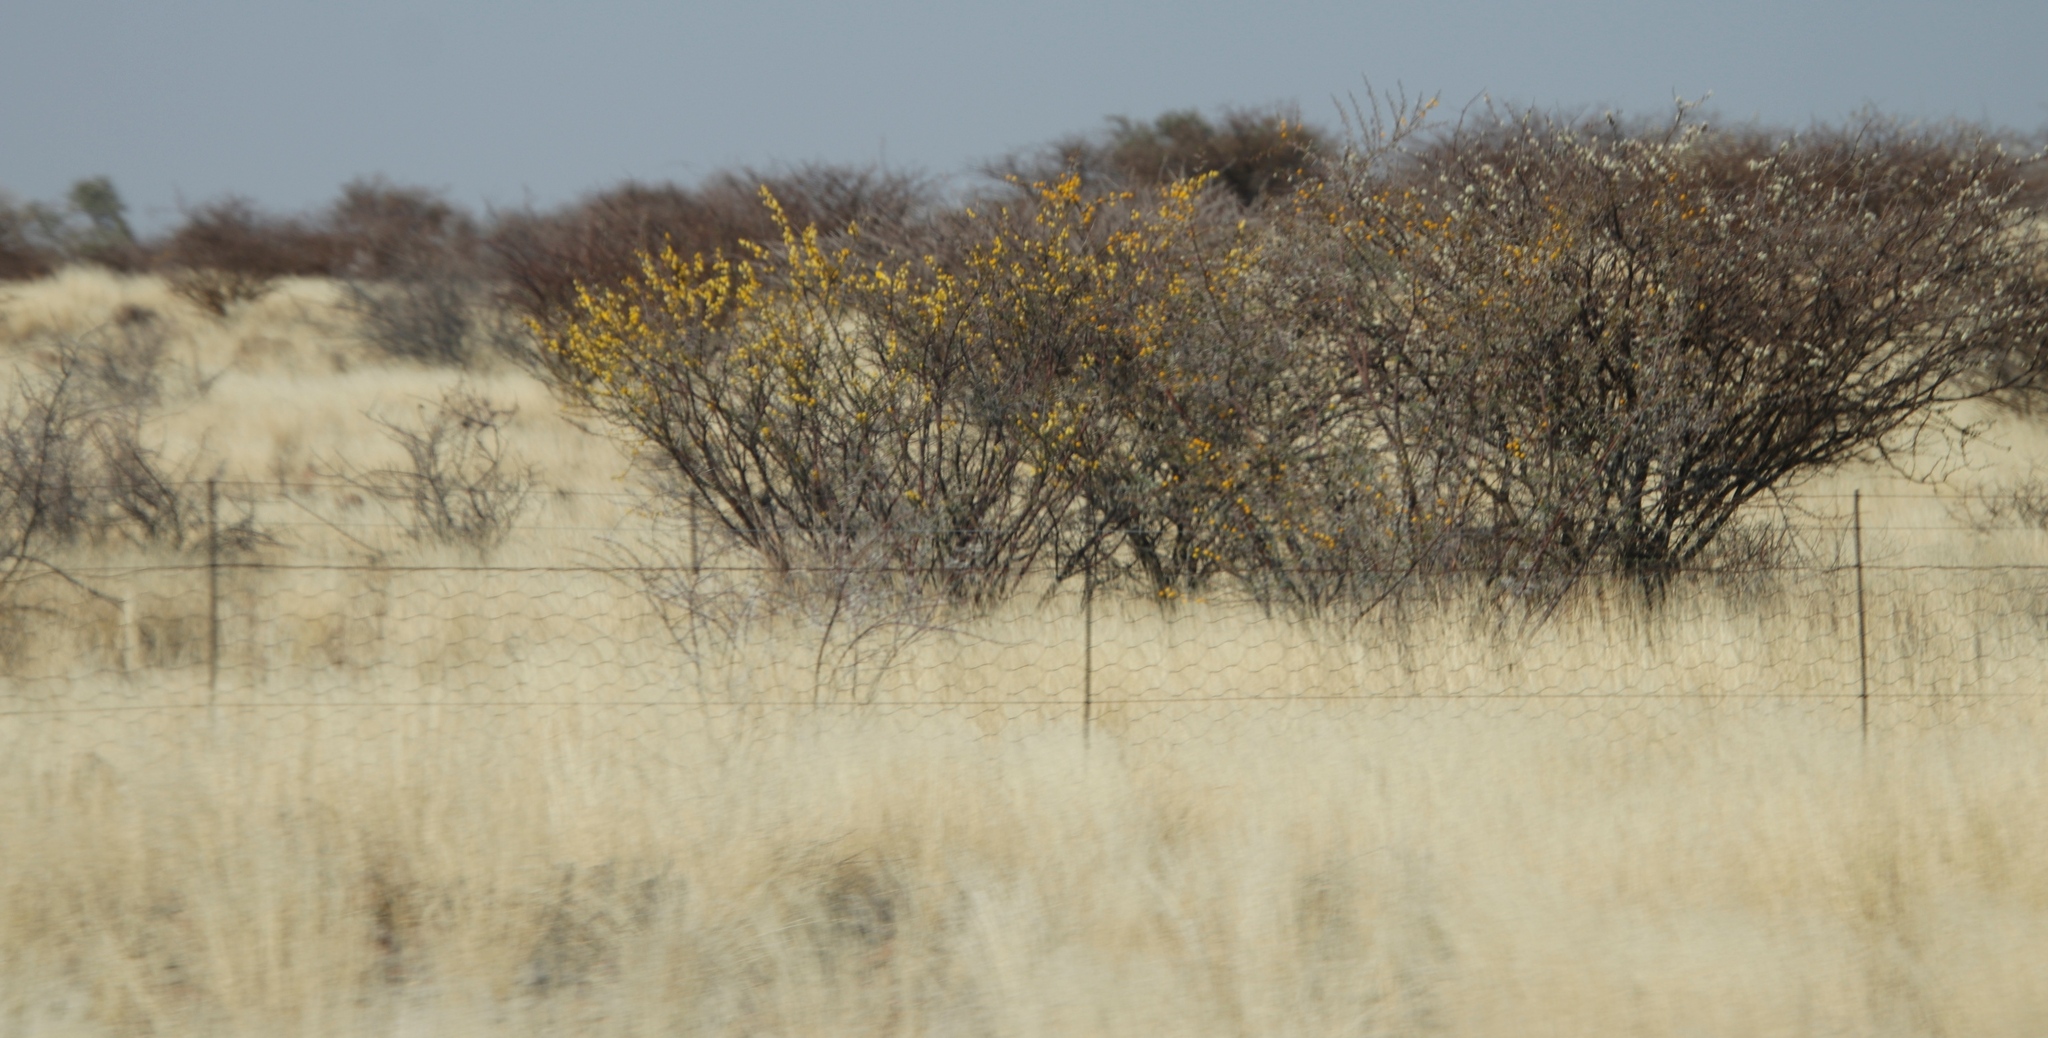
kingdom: Plantae
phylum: Tracheophyta
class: Magnoliopsida
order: Fabales
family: Fabaceae
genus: Senegalia
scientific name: Senegalia mellifera
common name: Hookthorn
